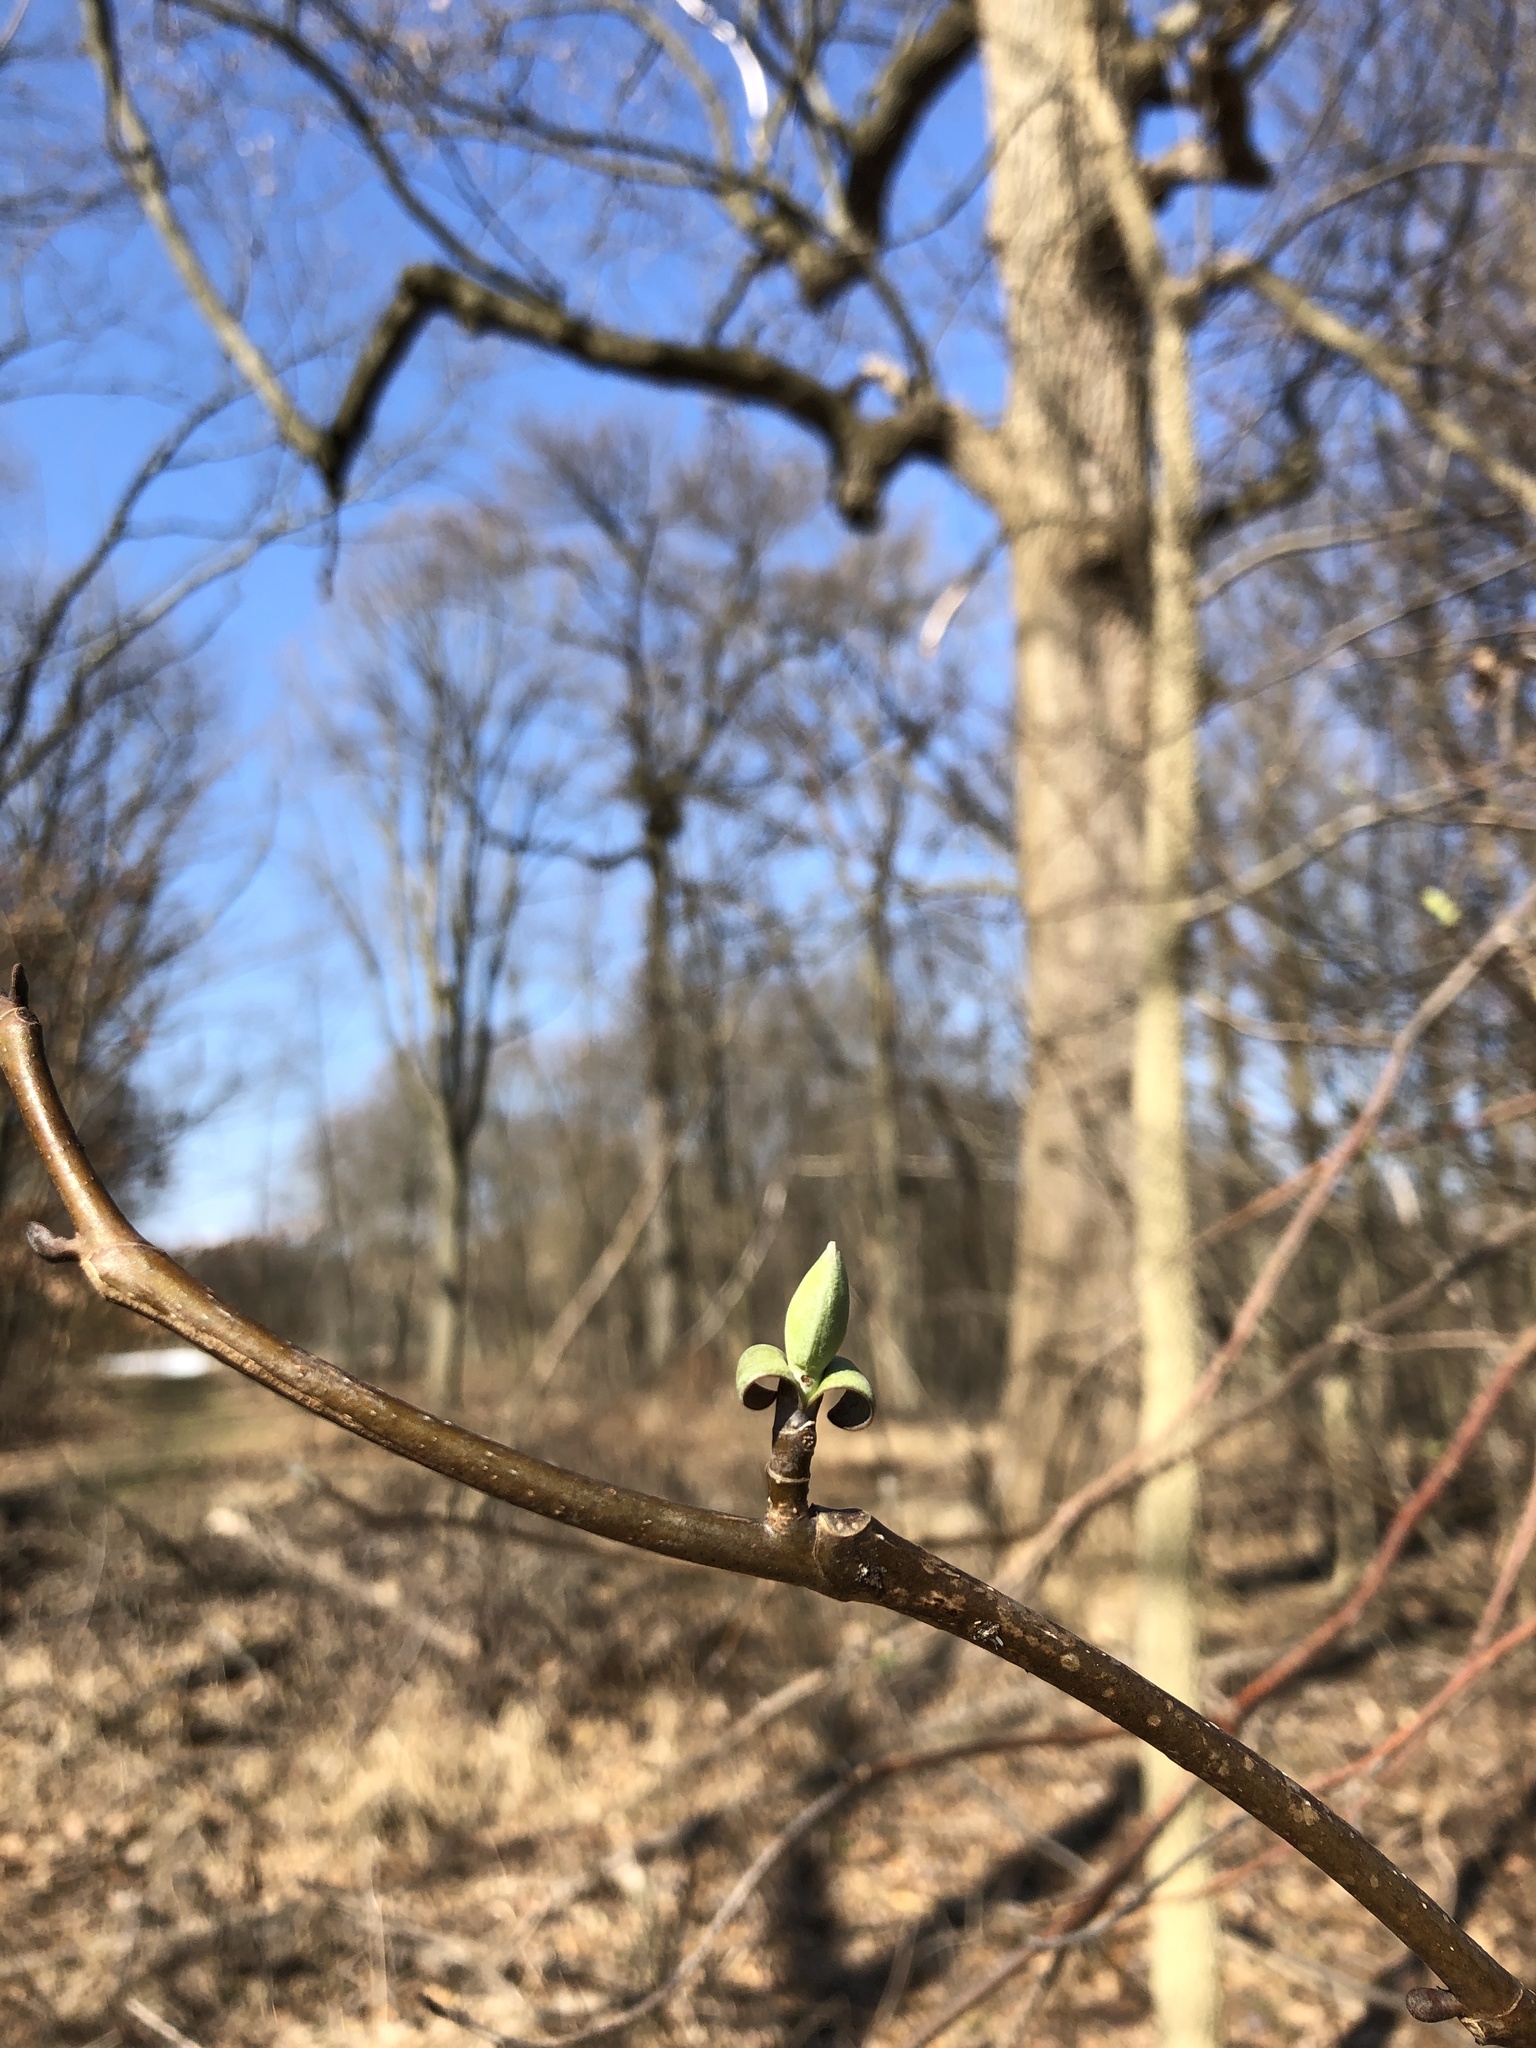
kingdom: Plantae
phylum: Tracheophyta
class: Magnoliopsida
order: Magnoliales
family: Magnoliaceae
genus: Liriodendron
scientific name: Liriodendron tulipifera
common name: Tulip tree
